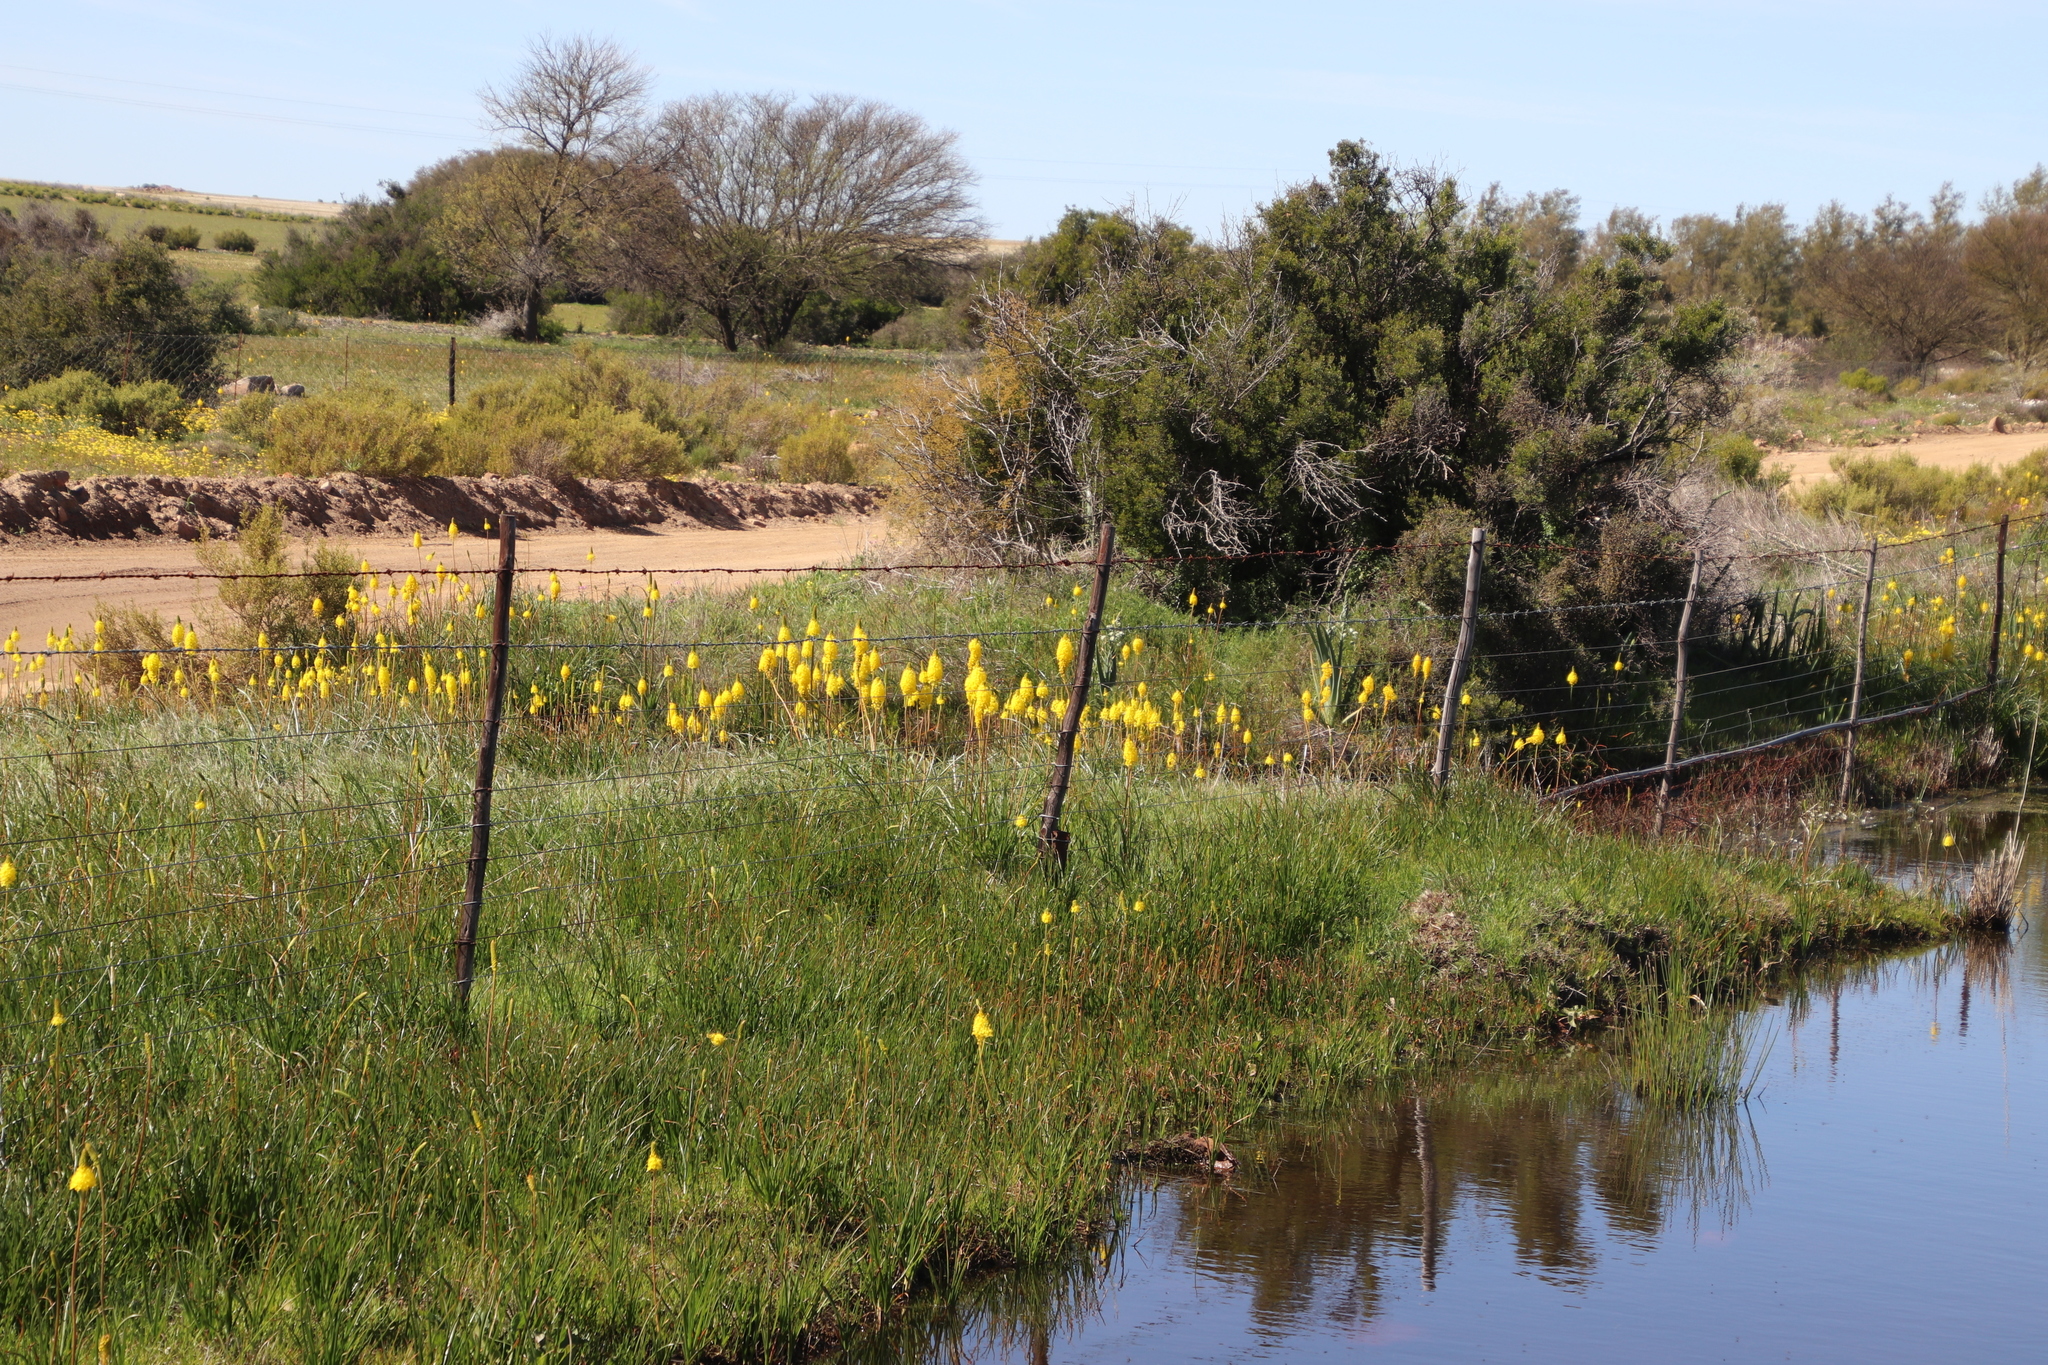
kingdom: Plantae
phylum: Tracheophyta
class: Liliopsida
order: Asparagales
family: Asphodelaceae
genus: Bulbinella
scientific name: Bulbinella nutans
